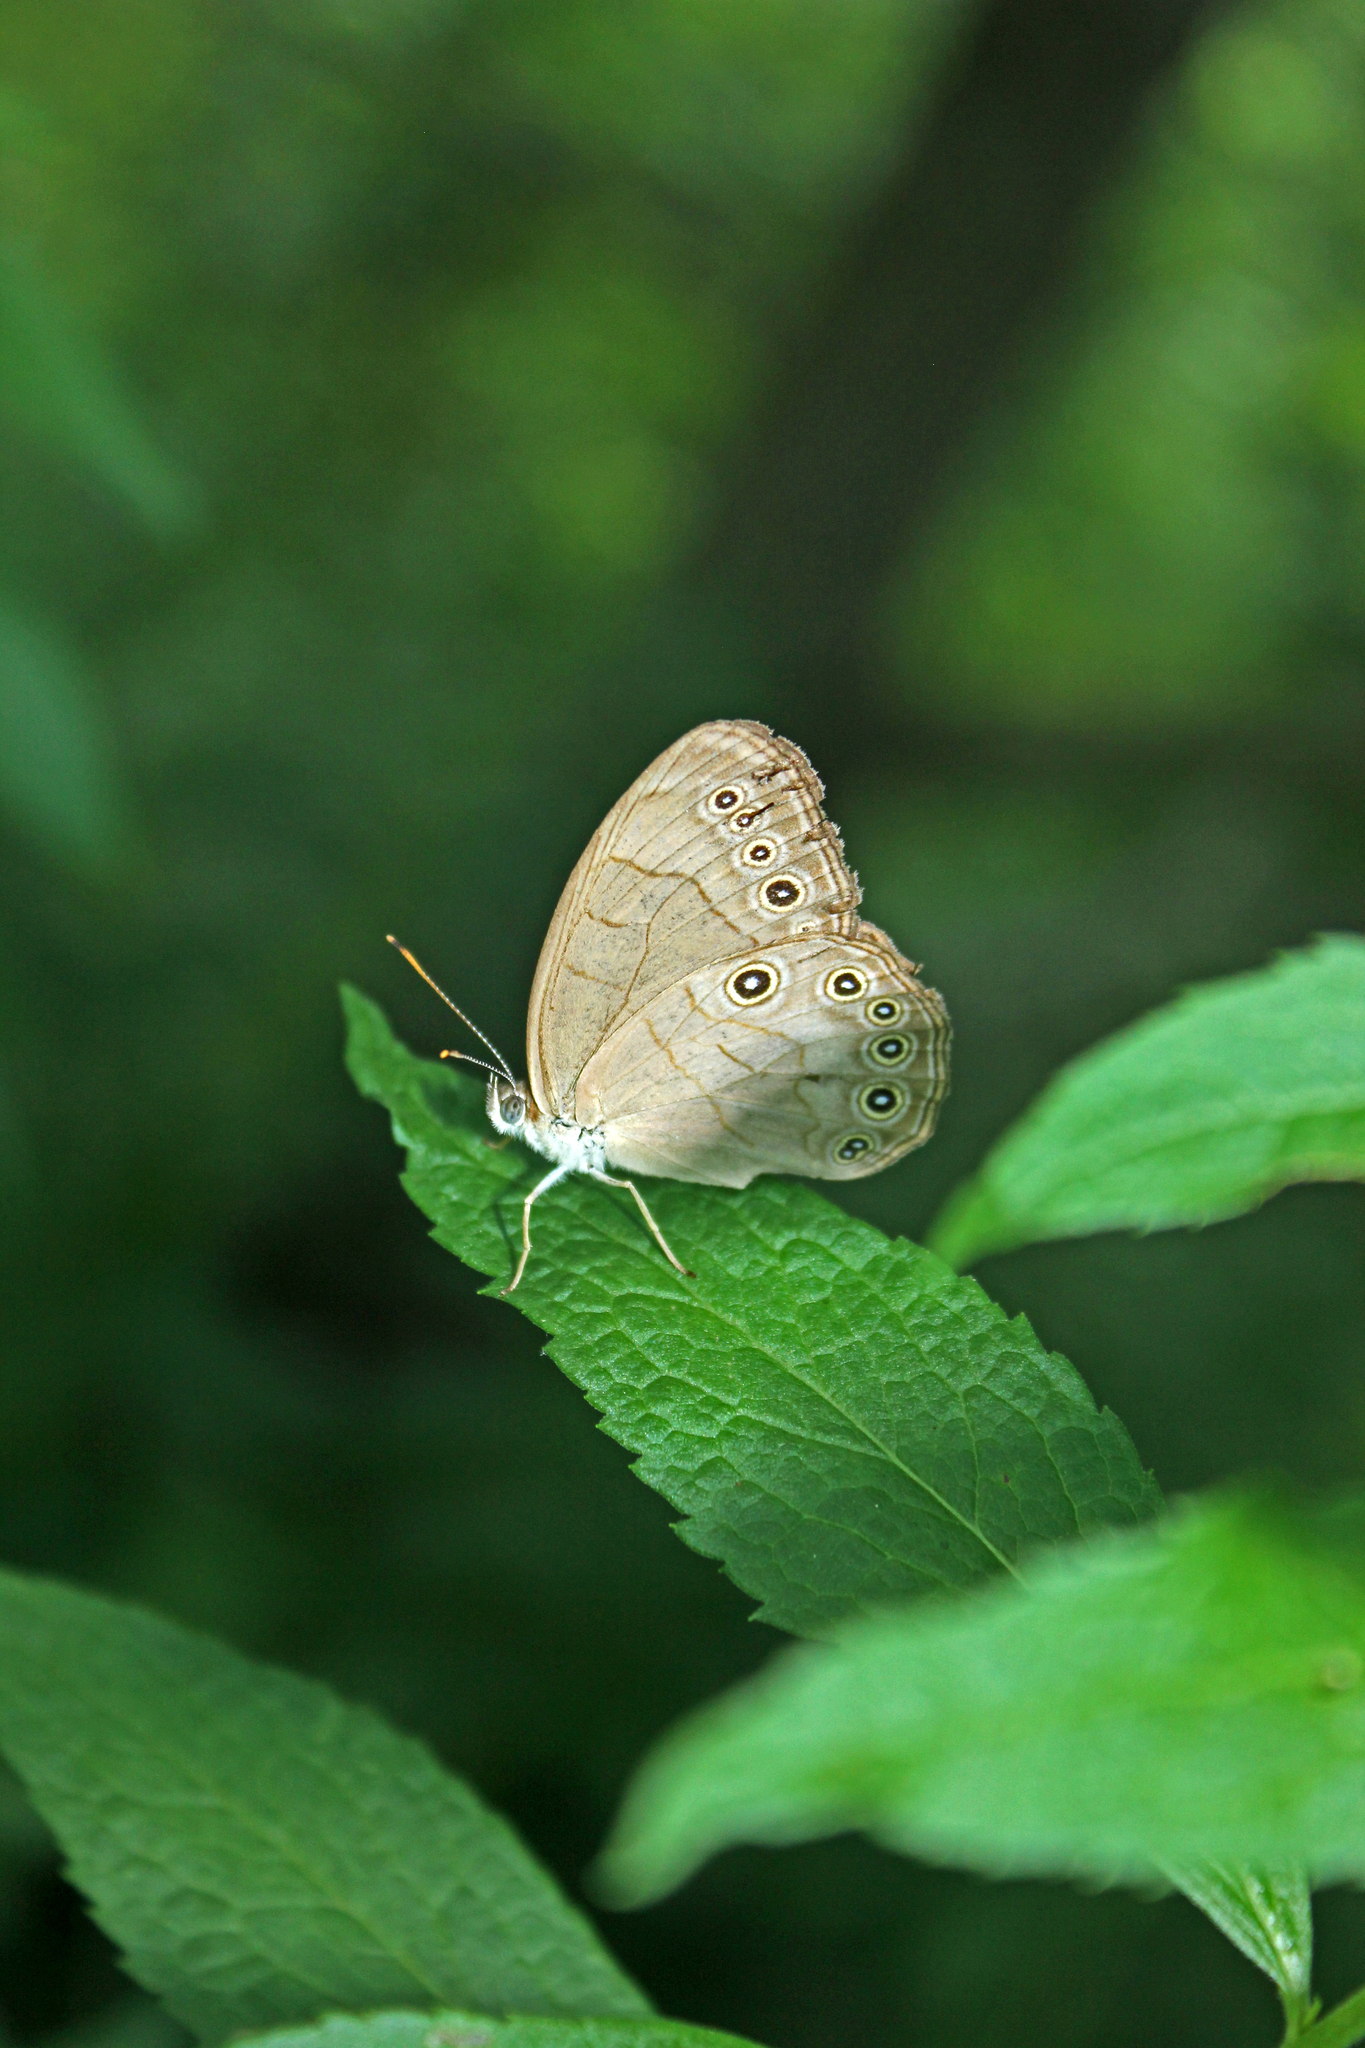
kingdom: Animalia
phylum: Arthropoda
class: Insecta
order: Lepidoptera
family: Nymphalidae
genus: Lethe
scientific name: Lethe eurydice
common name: Eyed brown
